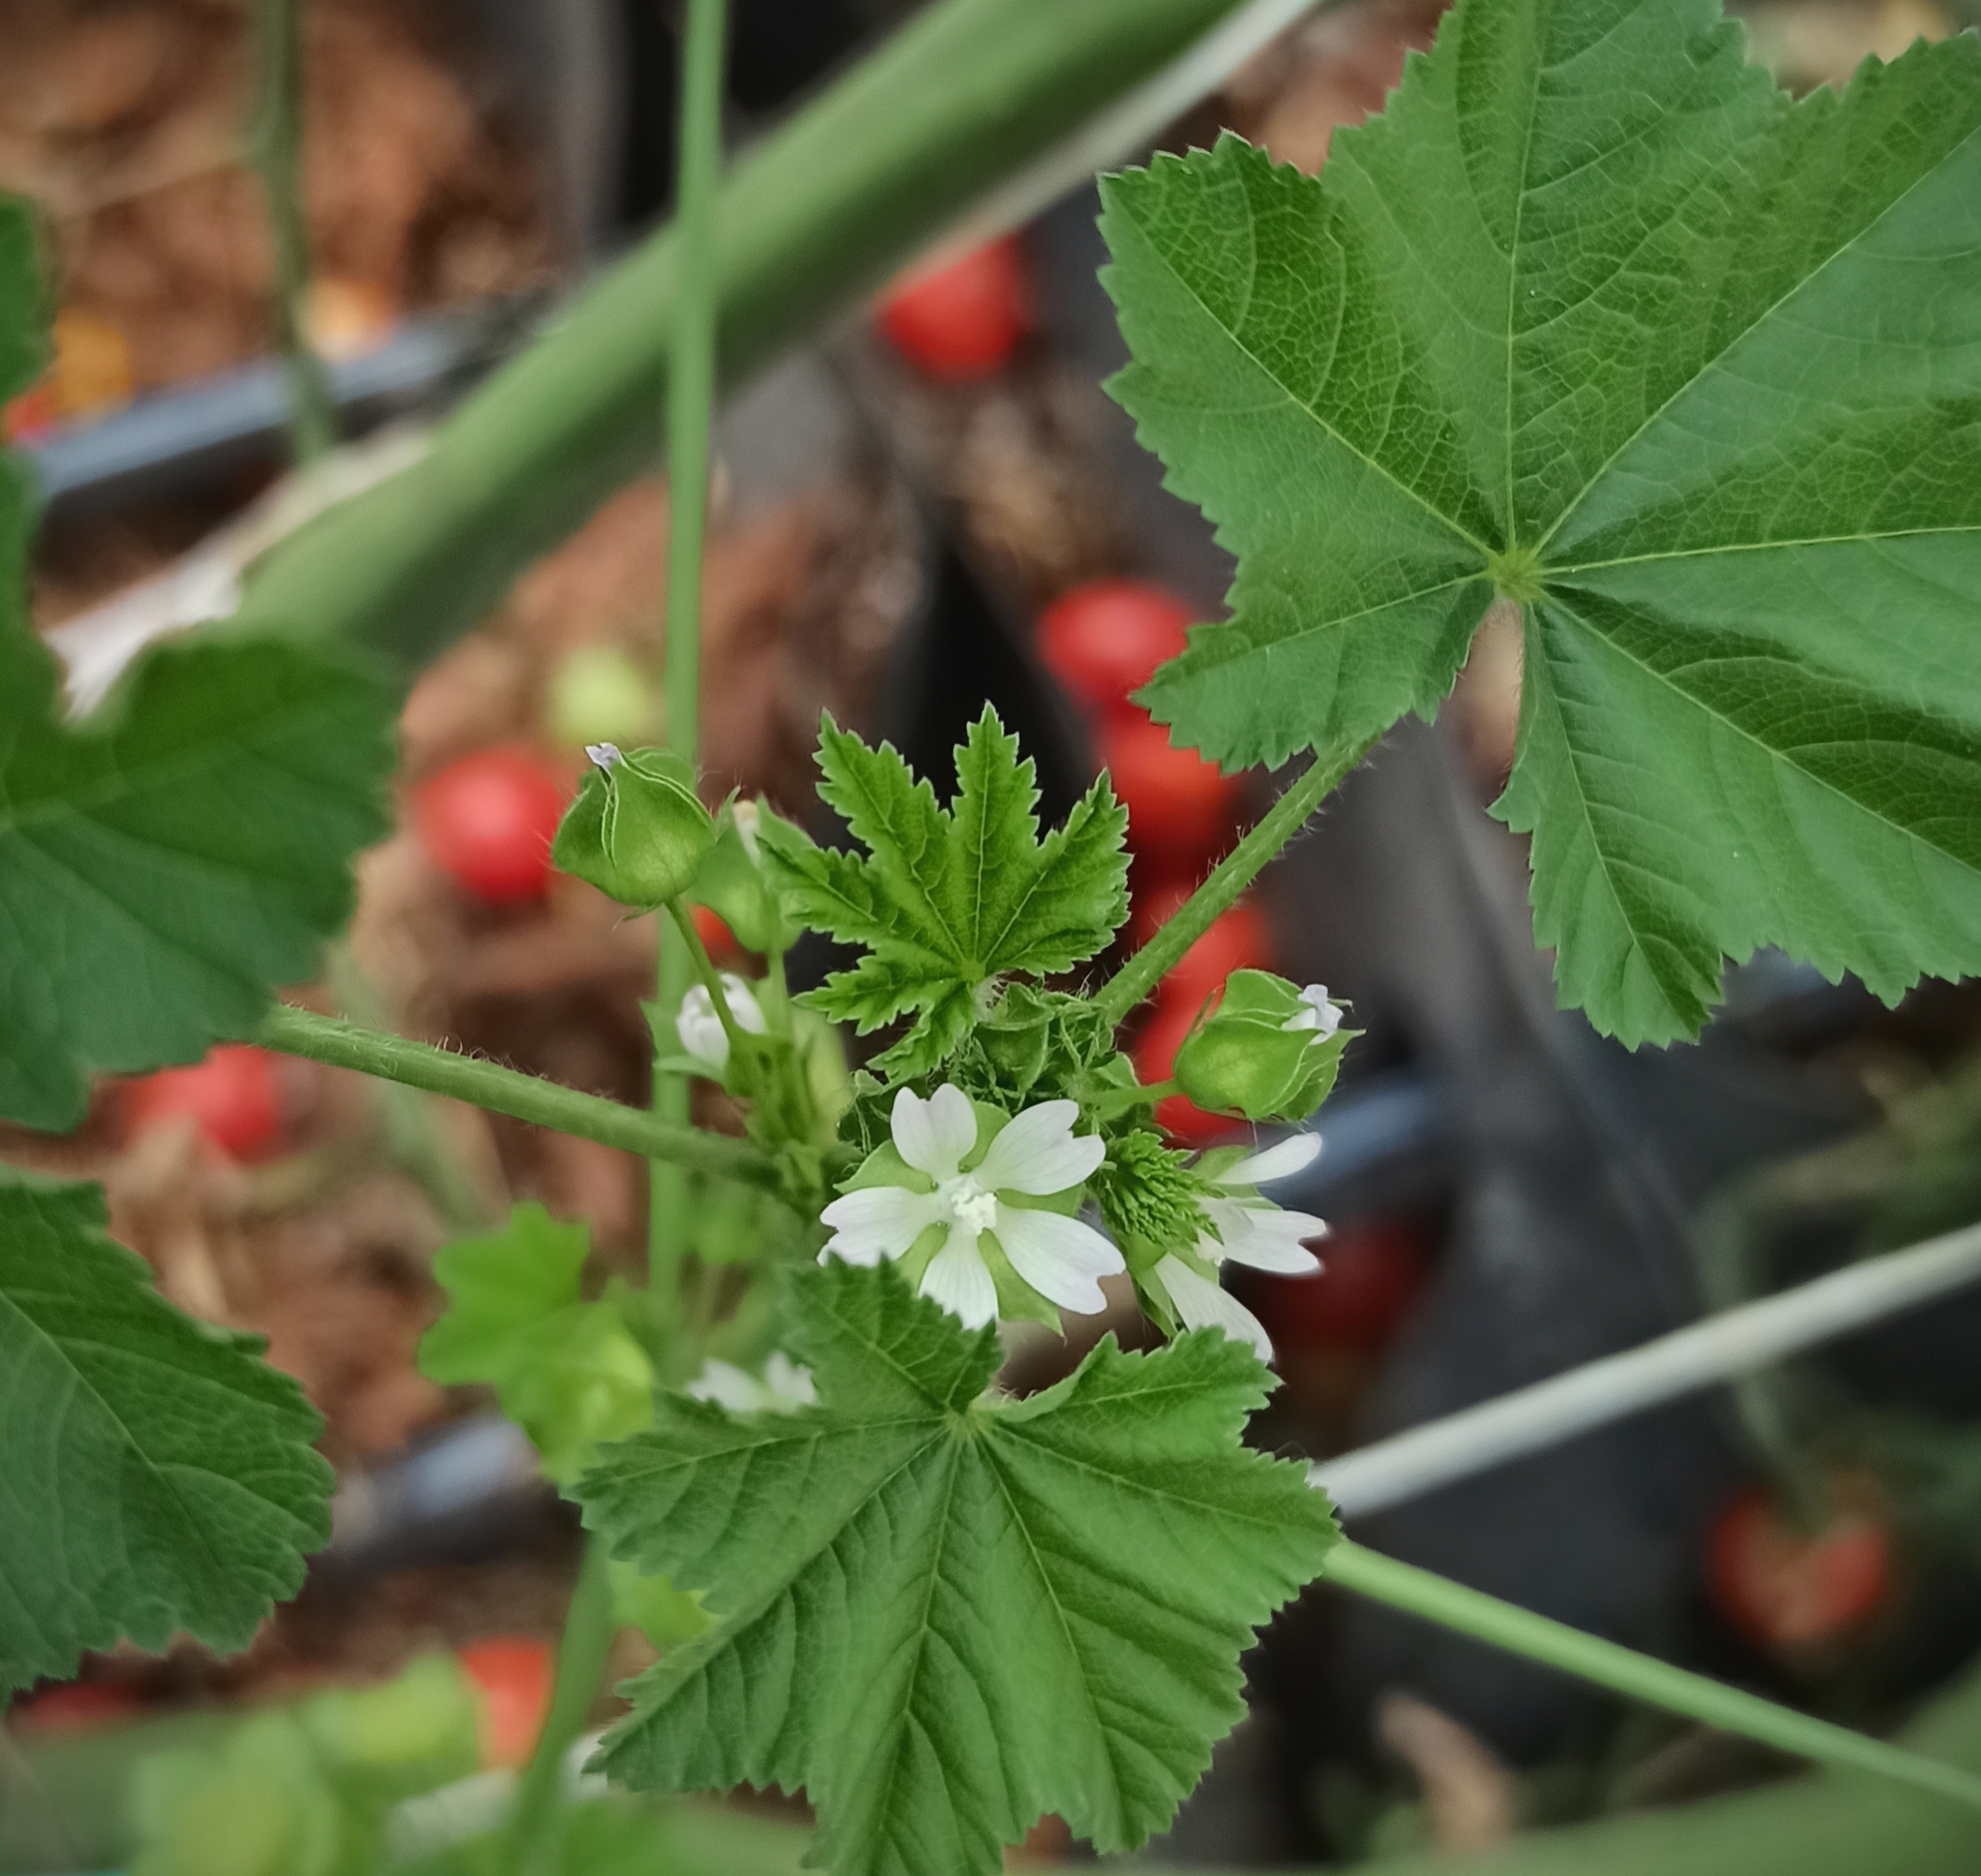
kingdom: Plantae
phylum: Tracheophyta
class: Magnoliopsida
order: Malvales
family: Malvaceae
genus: Malva
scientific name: Malva parviflora
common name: Least mallow
